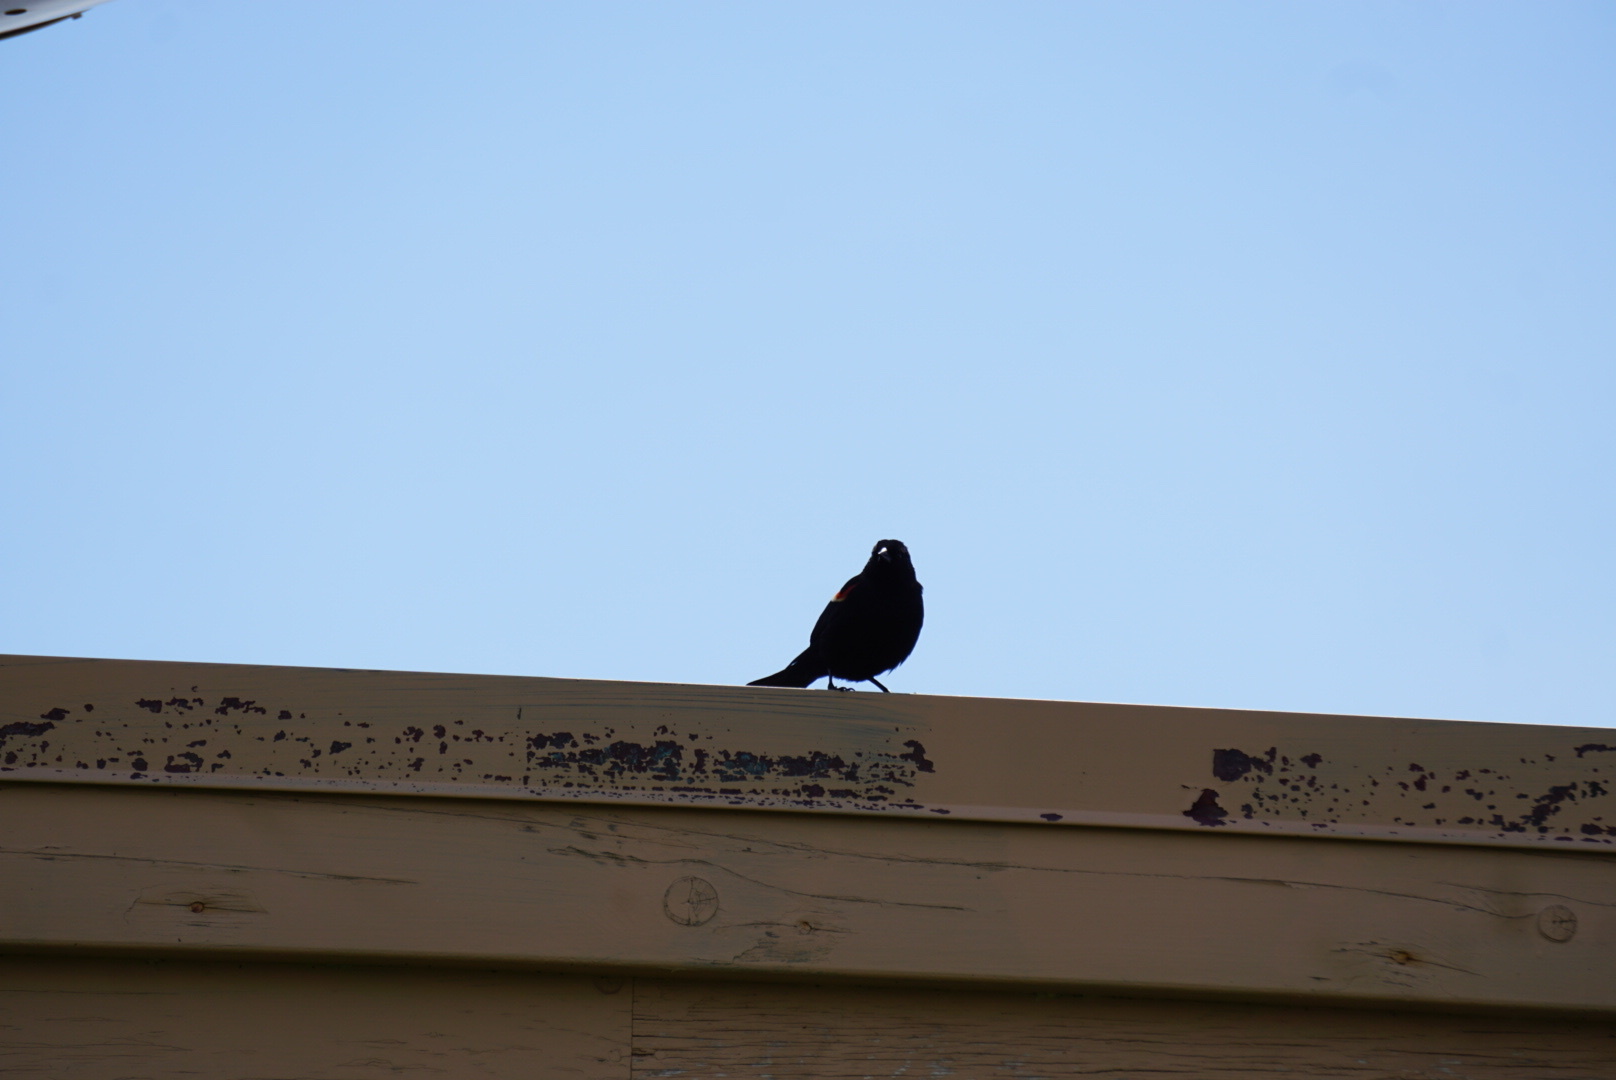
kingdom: Animalia
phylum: Chordata
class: Aves
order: Passeriformes
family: Icteridae
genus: Agelaius
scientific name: Agelaius phoeniceus
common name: Red-winged blackbird
